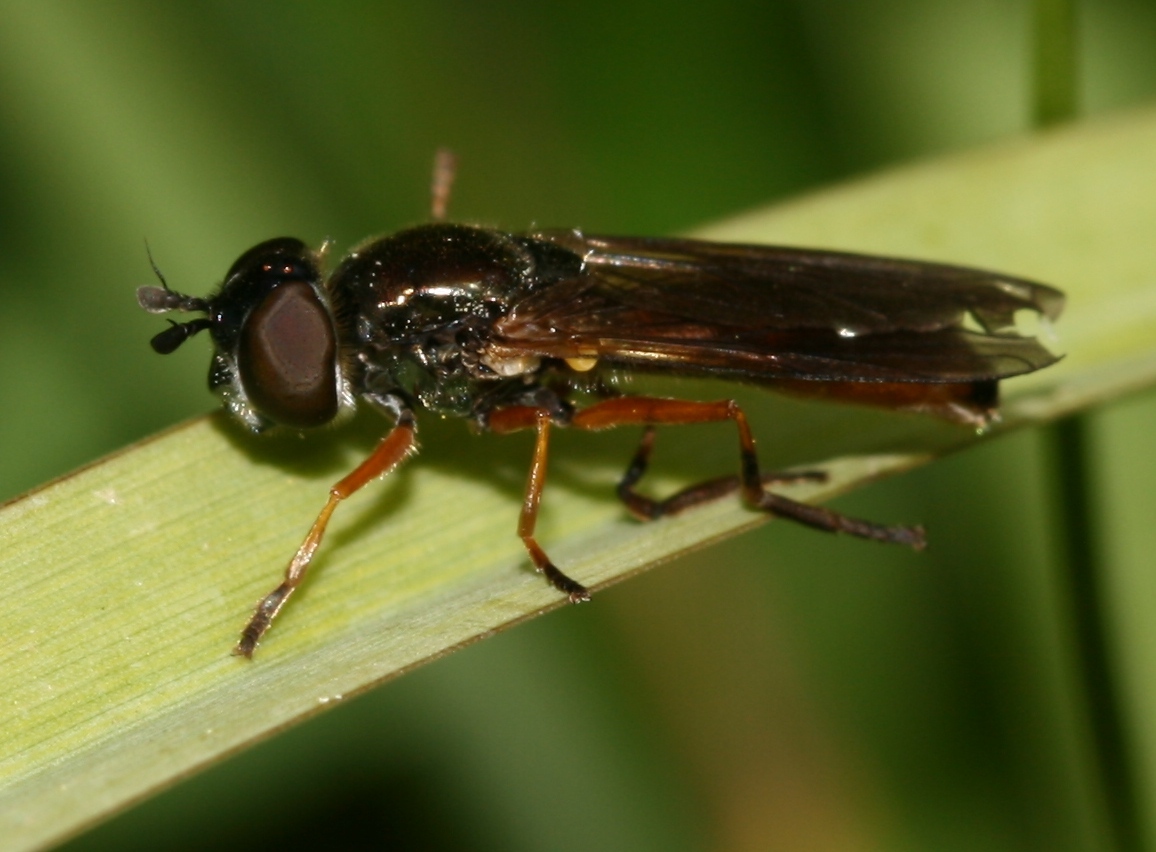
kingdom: Animalia
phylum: Arthropoda
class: Insecta
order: Diptera
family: Syrphidae
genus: Pyrophaena
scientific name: Pyrophaena granditarsa
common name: Hornhand sedgesitter
